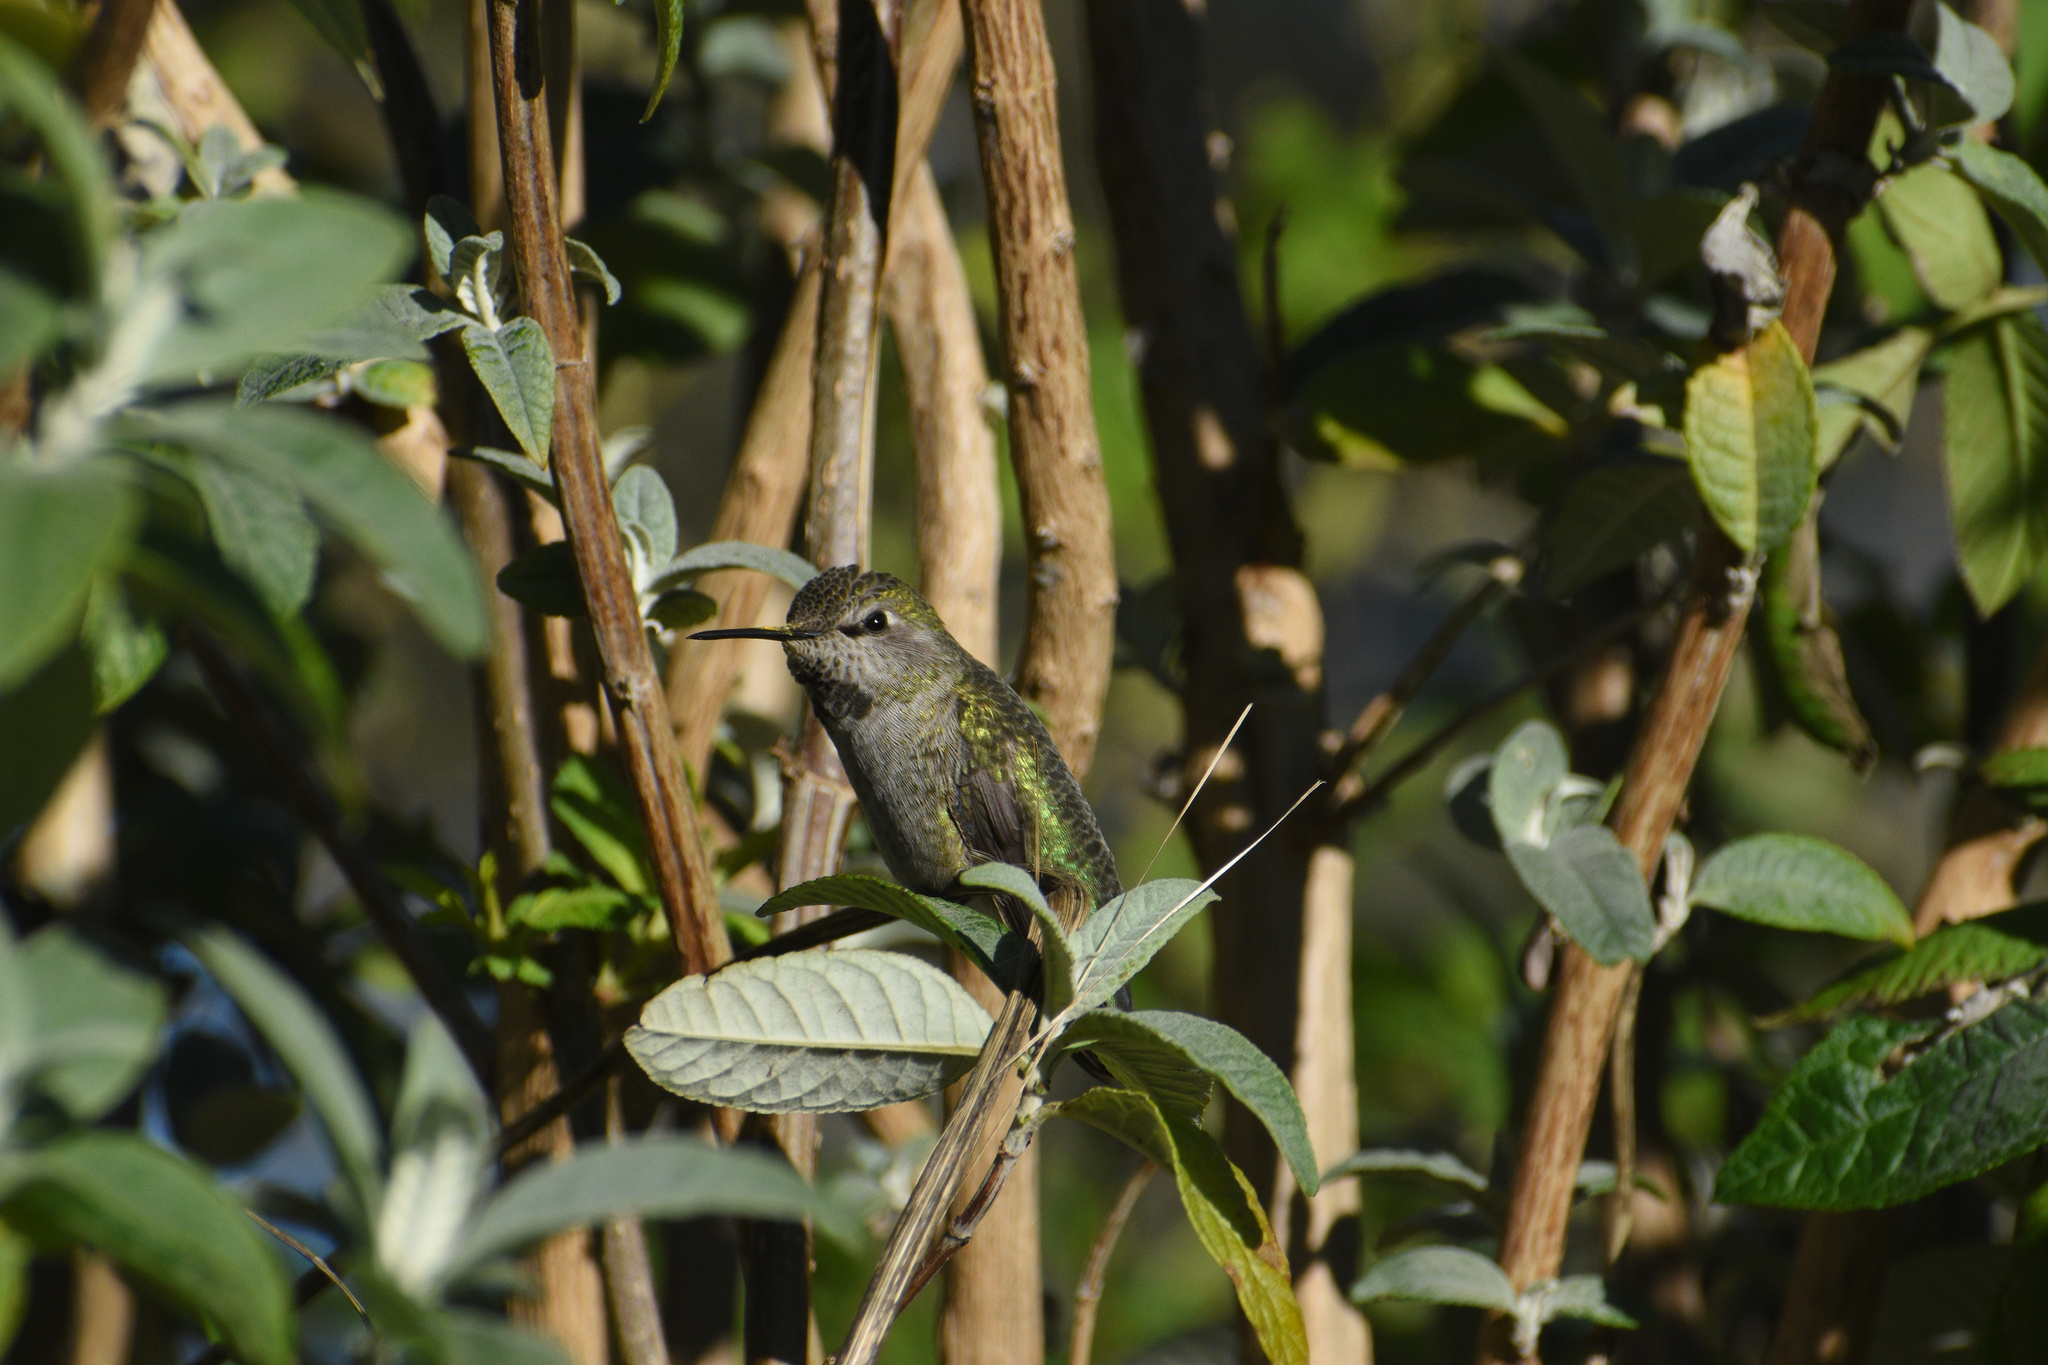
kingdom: Animalia
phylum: Chordata
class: Aves
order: Apodiformes
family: Trochilidae
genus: Calypte
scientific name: Calypte anna
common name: Anna's hummingbird
